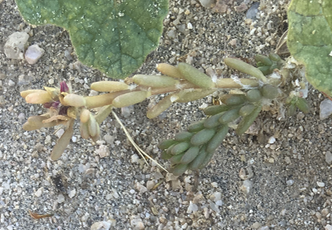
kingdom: Plantae
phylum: Tracheophyta
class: Magnoliopsida
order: Caryophyllales
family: Portulacaceae
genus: Portulaca
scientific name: Portulaca californica
